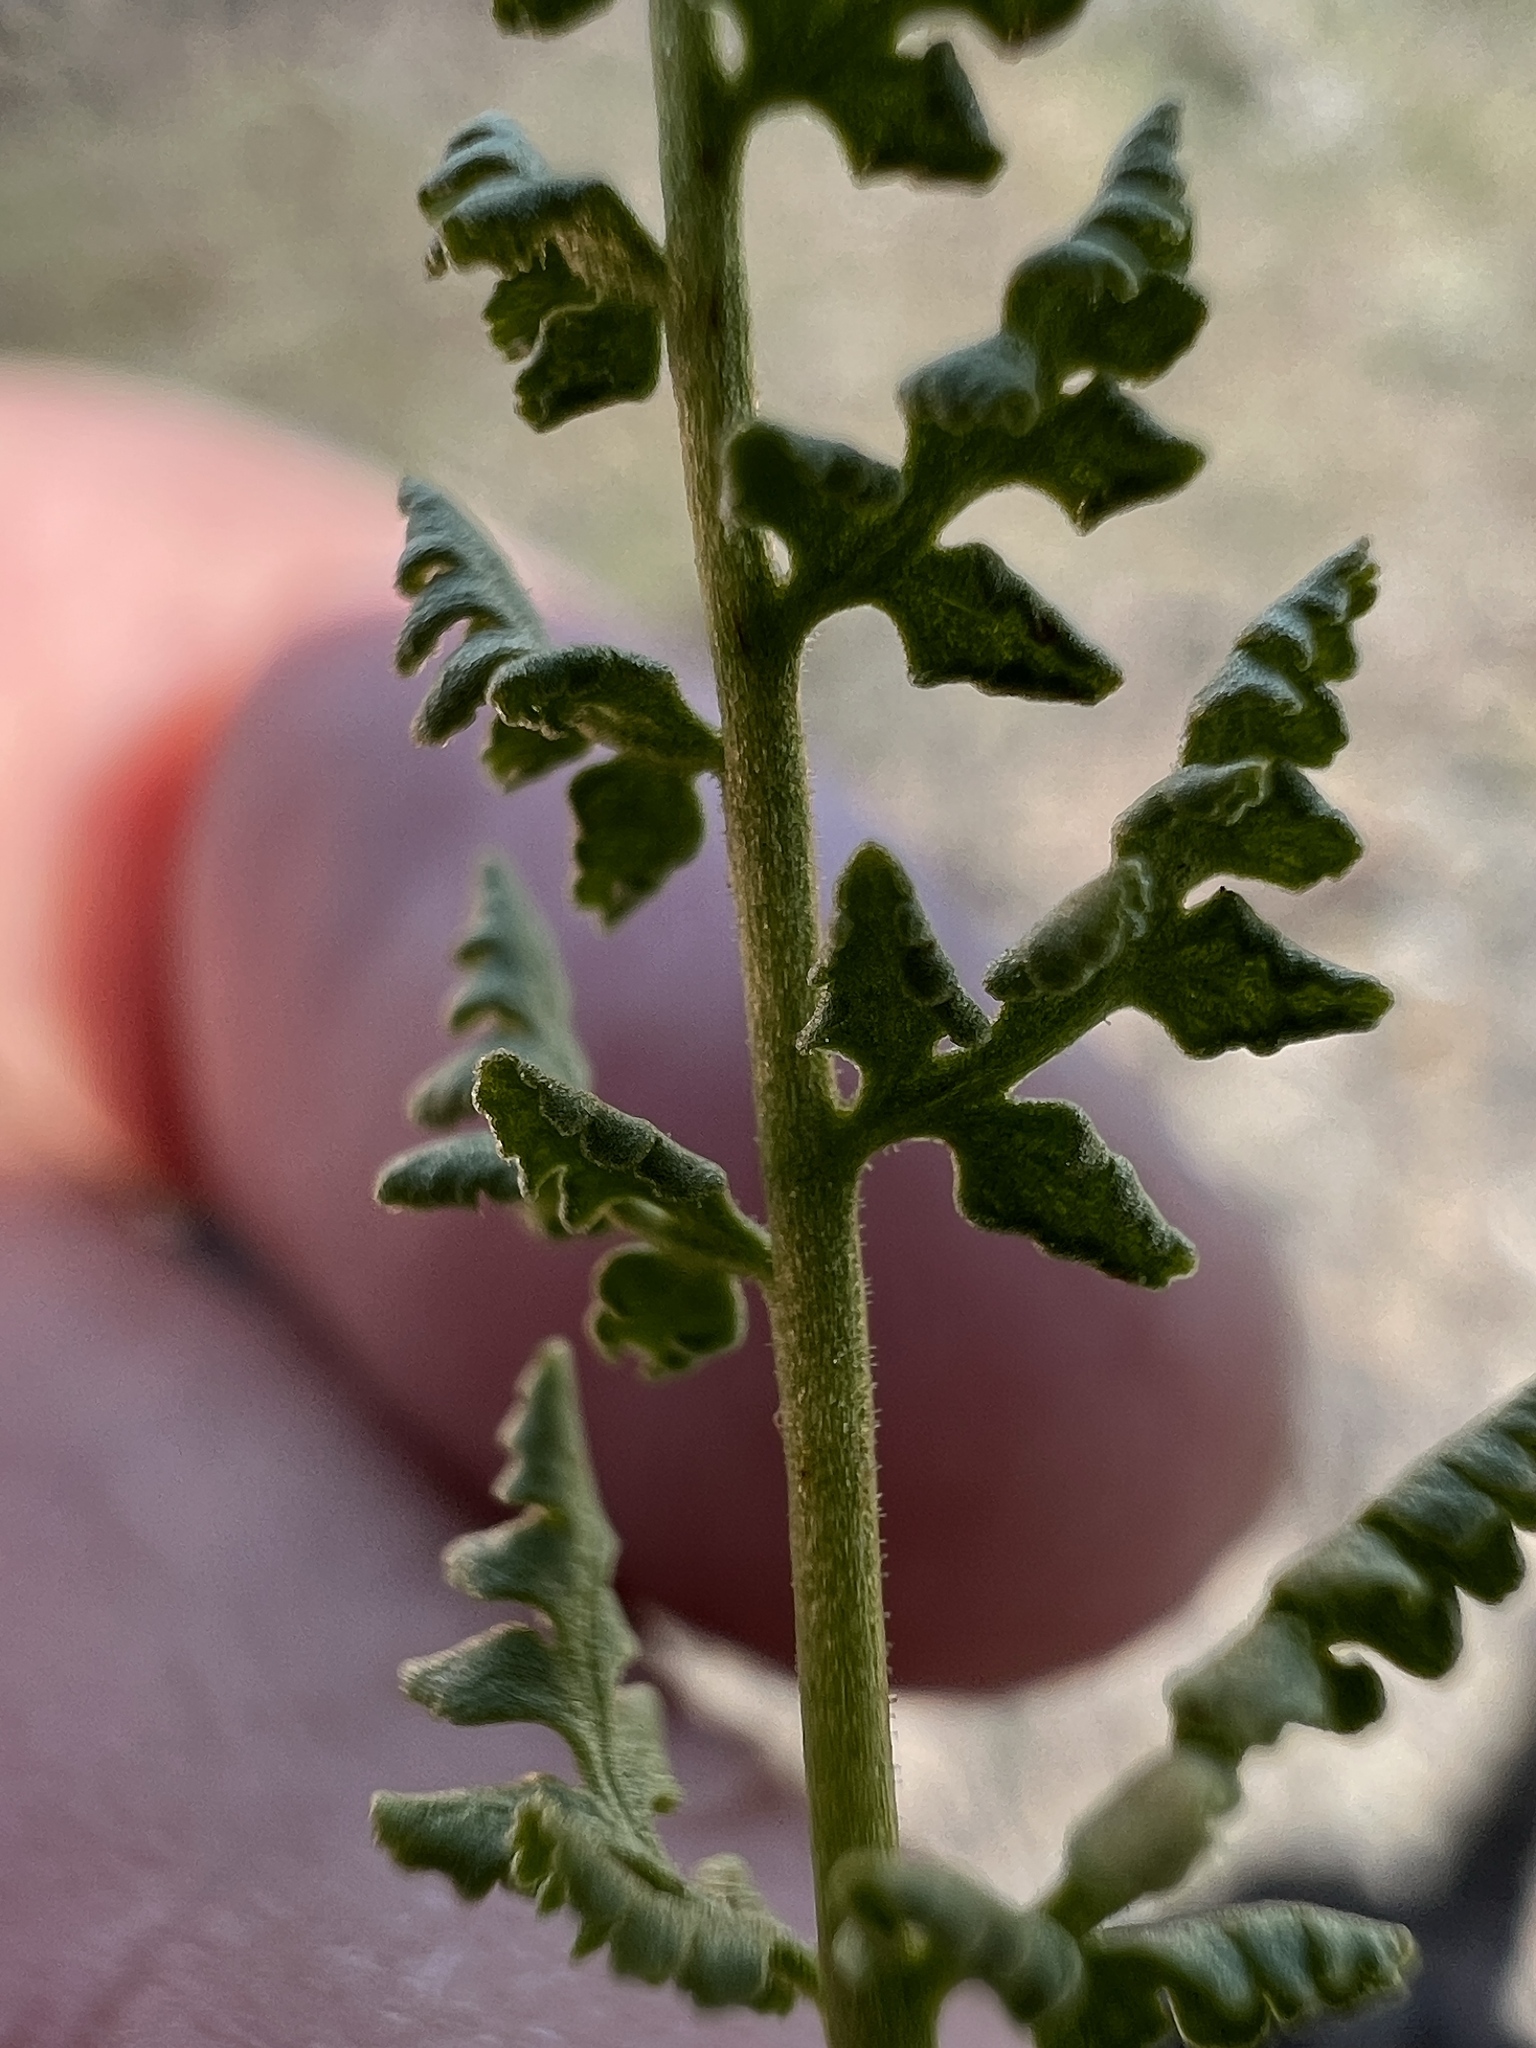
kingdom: Plantae
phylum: Tracheophyta
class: Polypodiopsida
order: Polypodiales
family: Woodsiaceae
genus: Physematium
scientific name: Physematium oreganum
